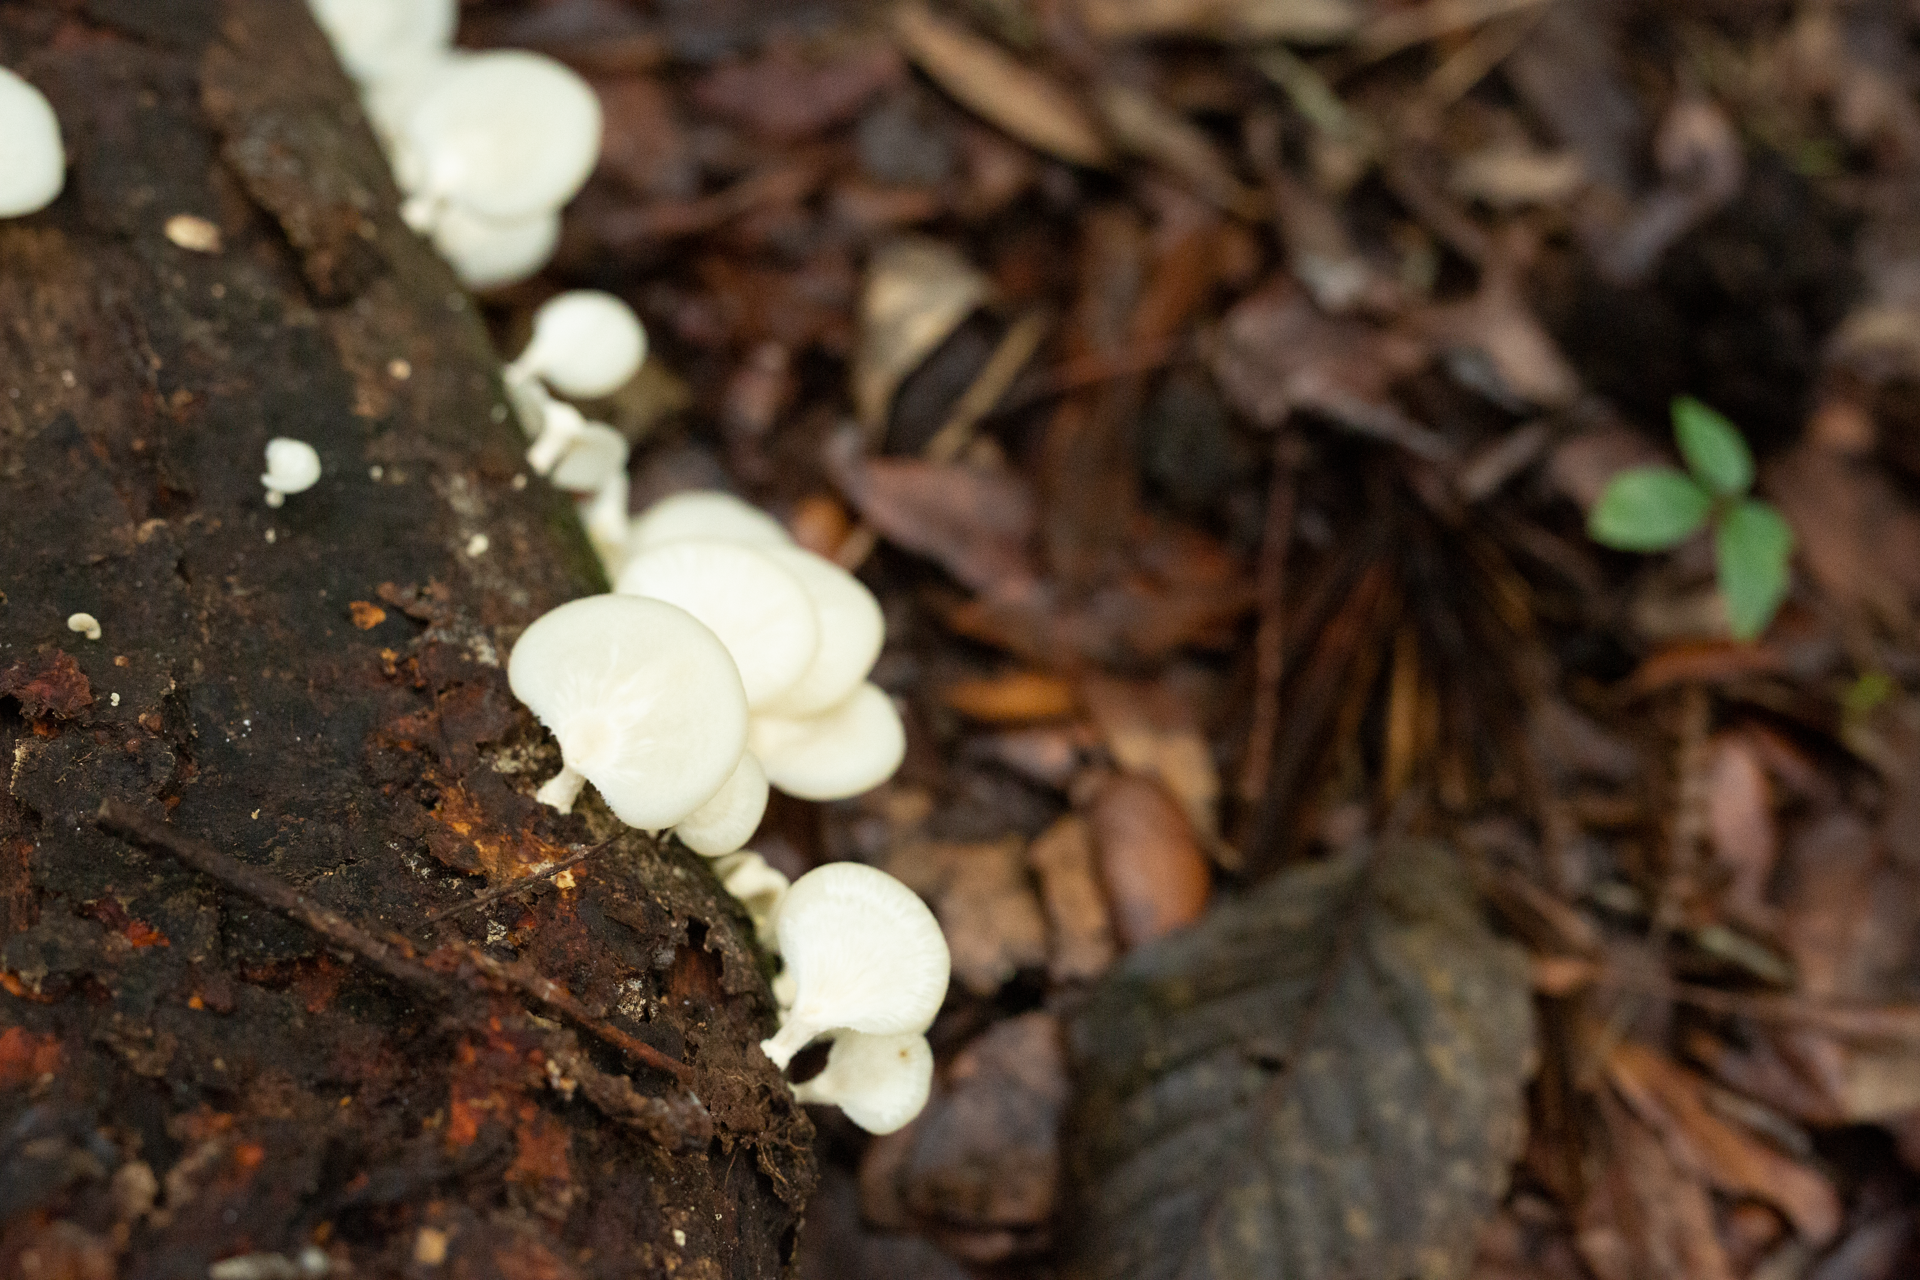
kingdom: Fungi
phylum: Basidiomycota
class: Agaricomycetes
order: Polyporales
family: Polyporaceae
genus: Favolus
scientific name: Favolus tenuiculus
